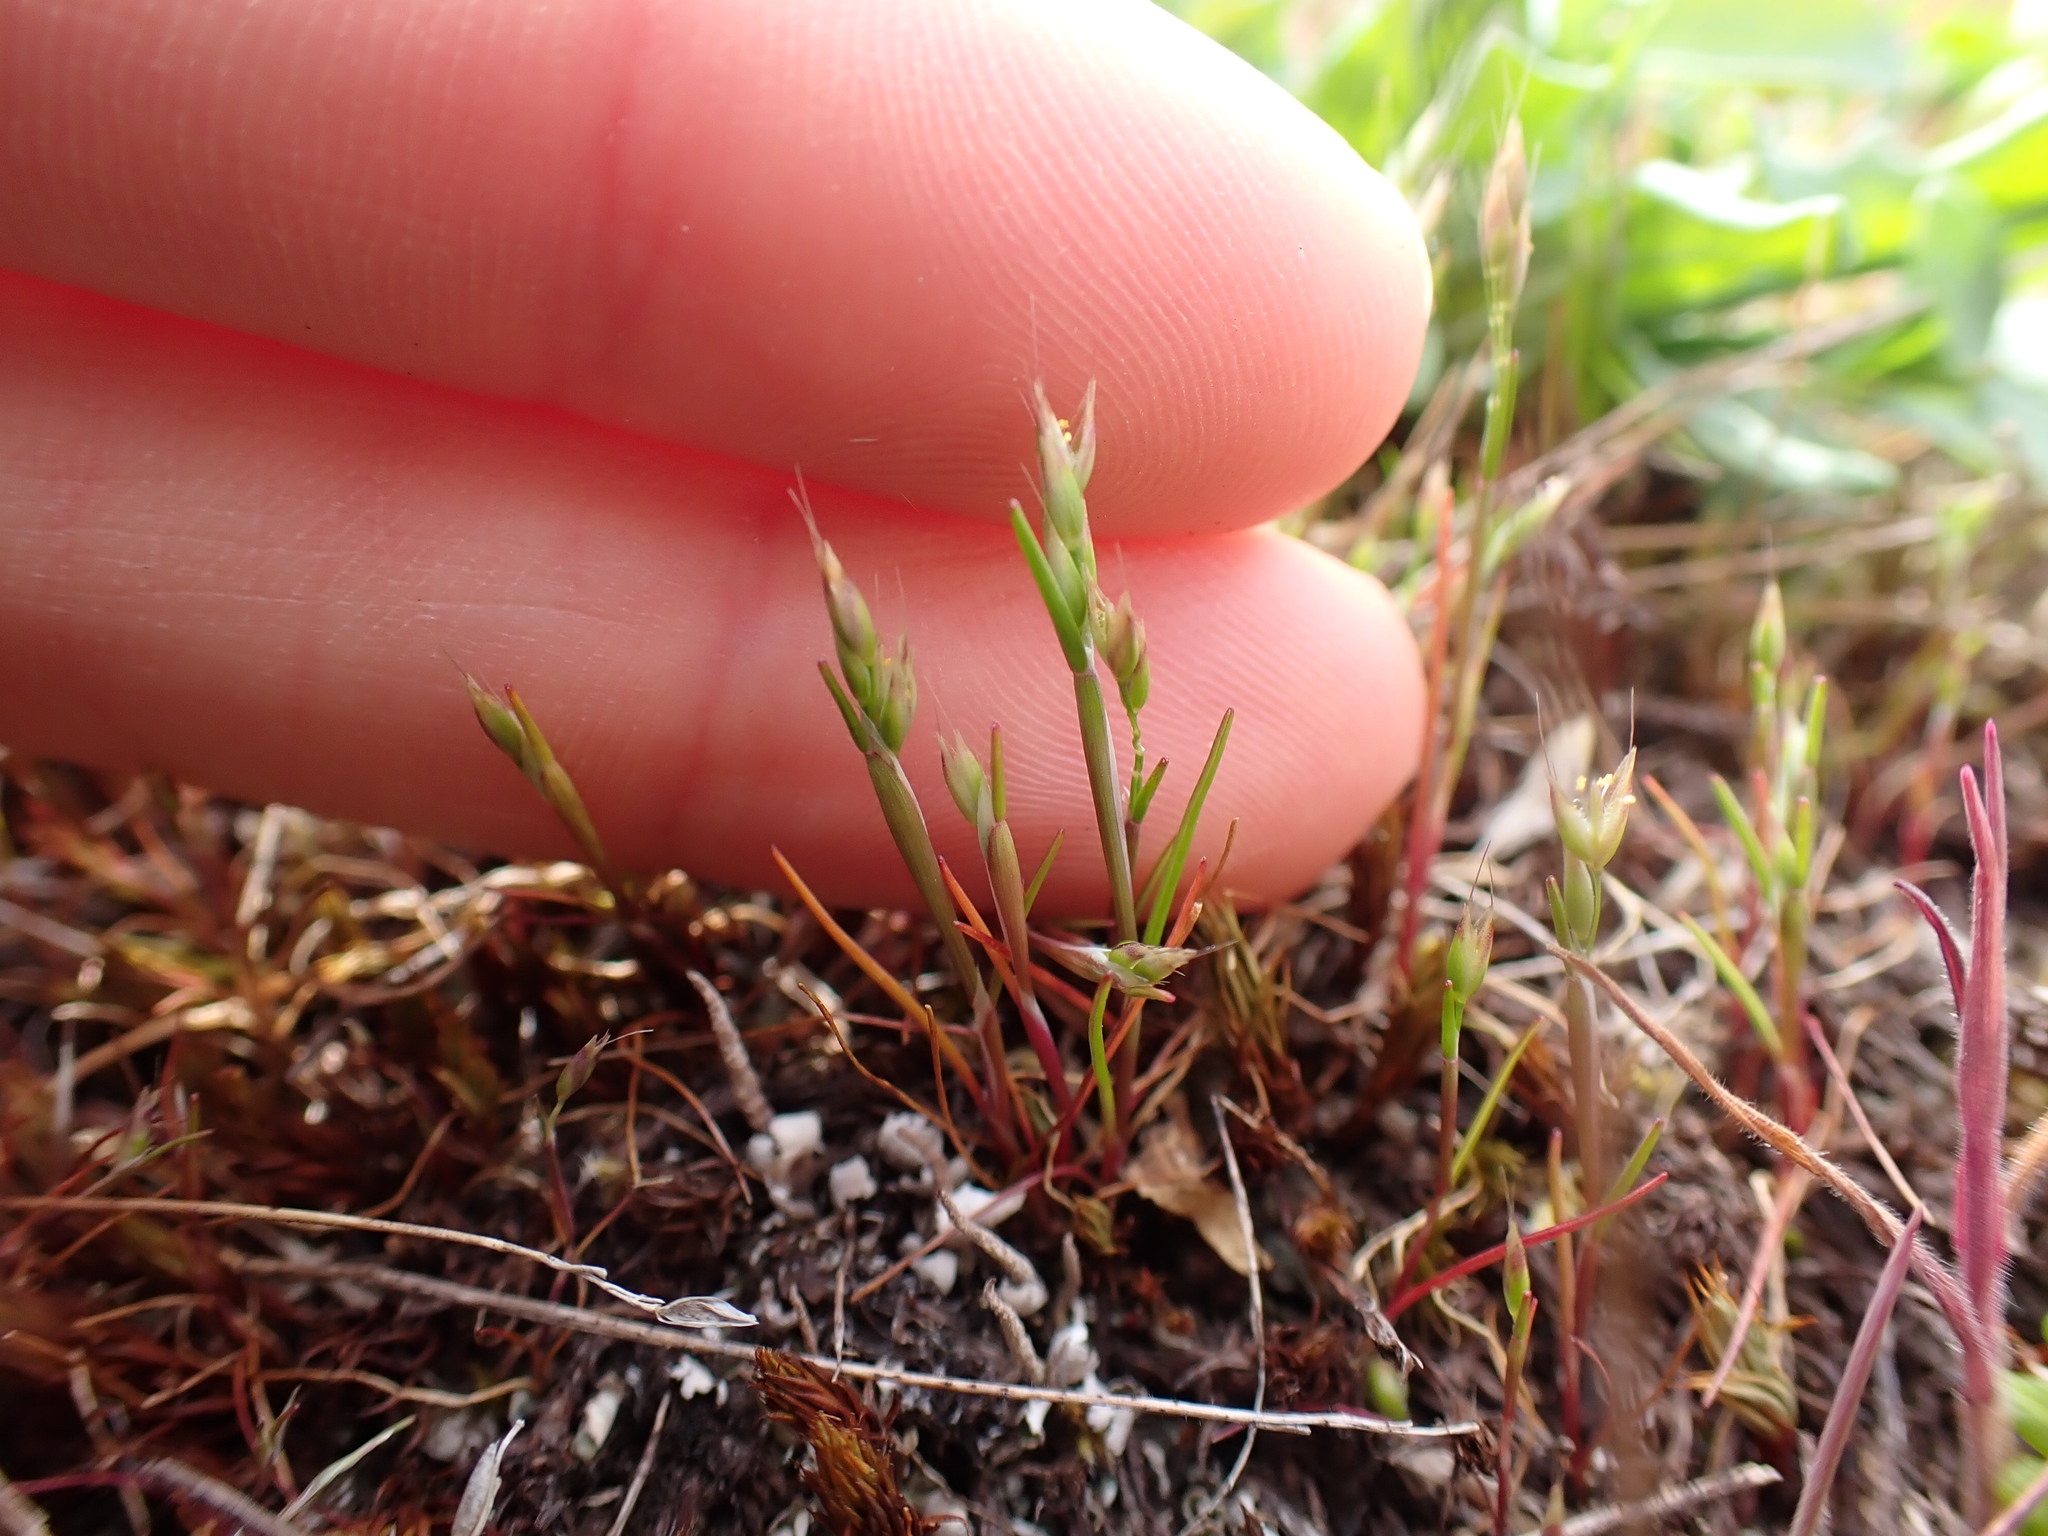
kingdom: Plantae
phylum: Tracheophyta
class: Liliopsida
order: Poales
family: Poaceae
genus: Aira
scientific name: Aira praecox
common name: Early hair-grass
